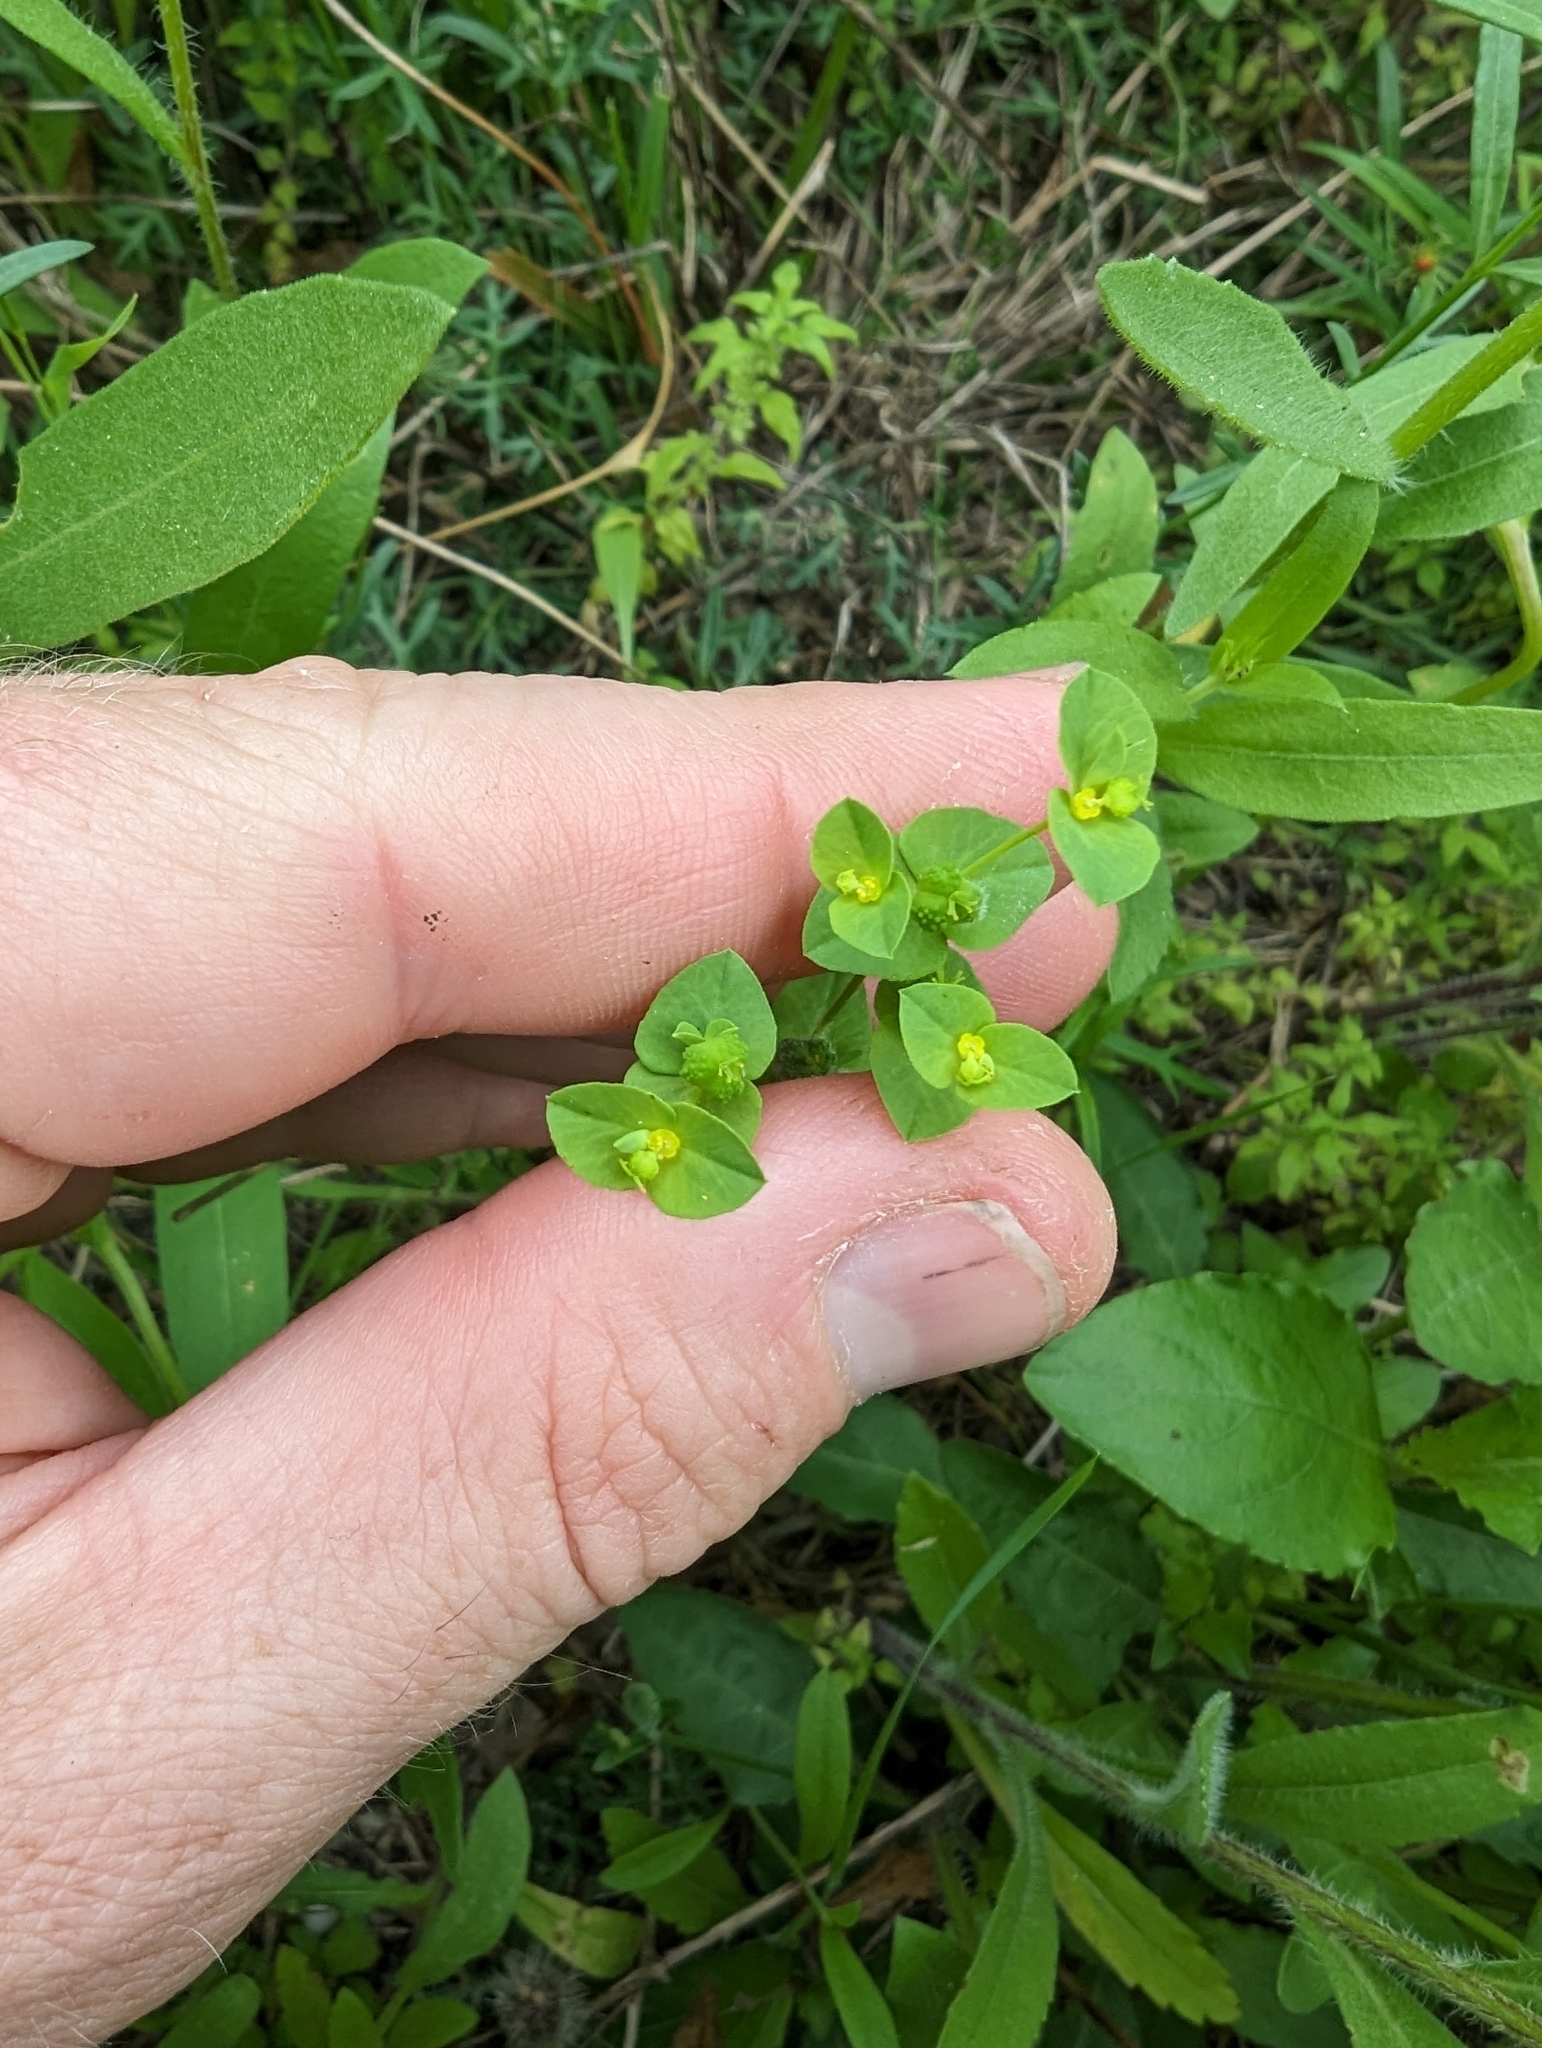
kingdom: Plantae
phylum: Tracheophyta
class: Magnoliopsida
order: Malpighiales
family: Euphorbiaceae
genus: Euphorbia
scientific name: Euphorbia spathulata
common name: Blunt spurge
